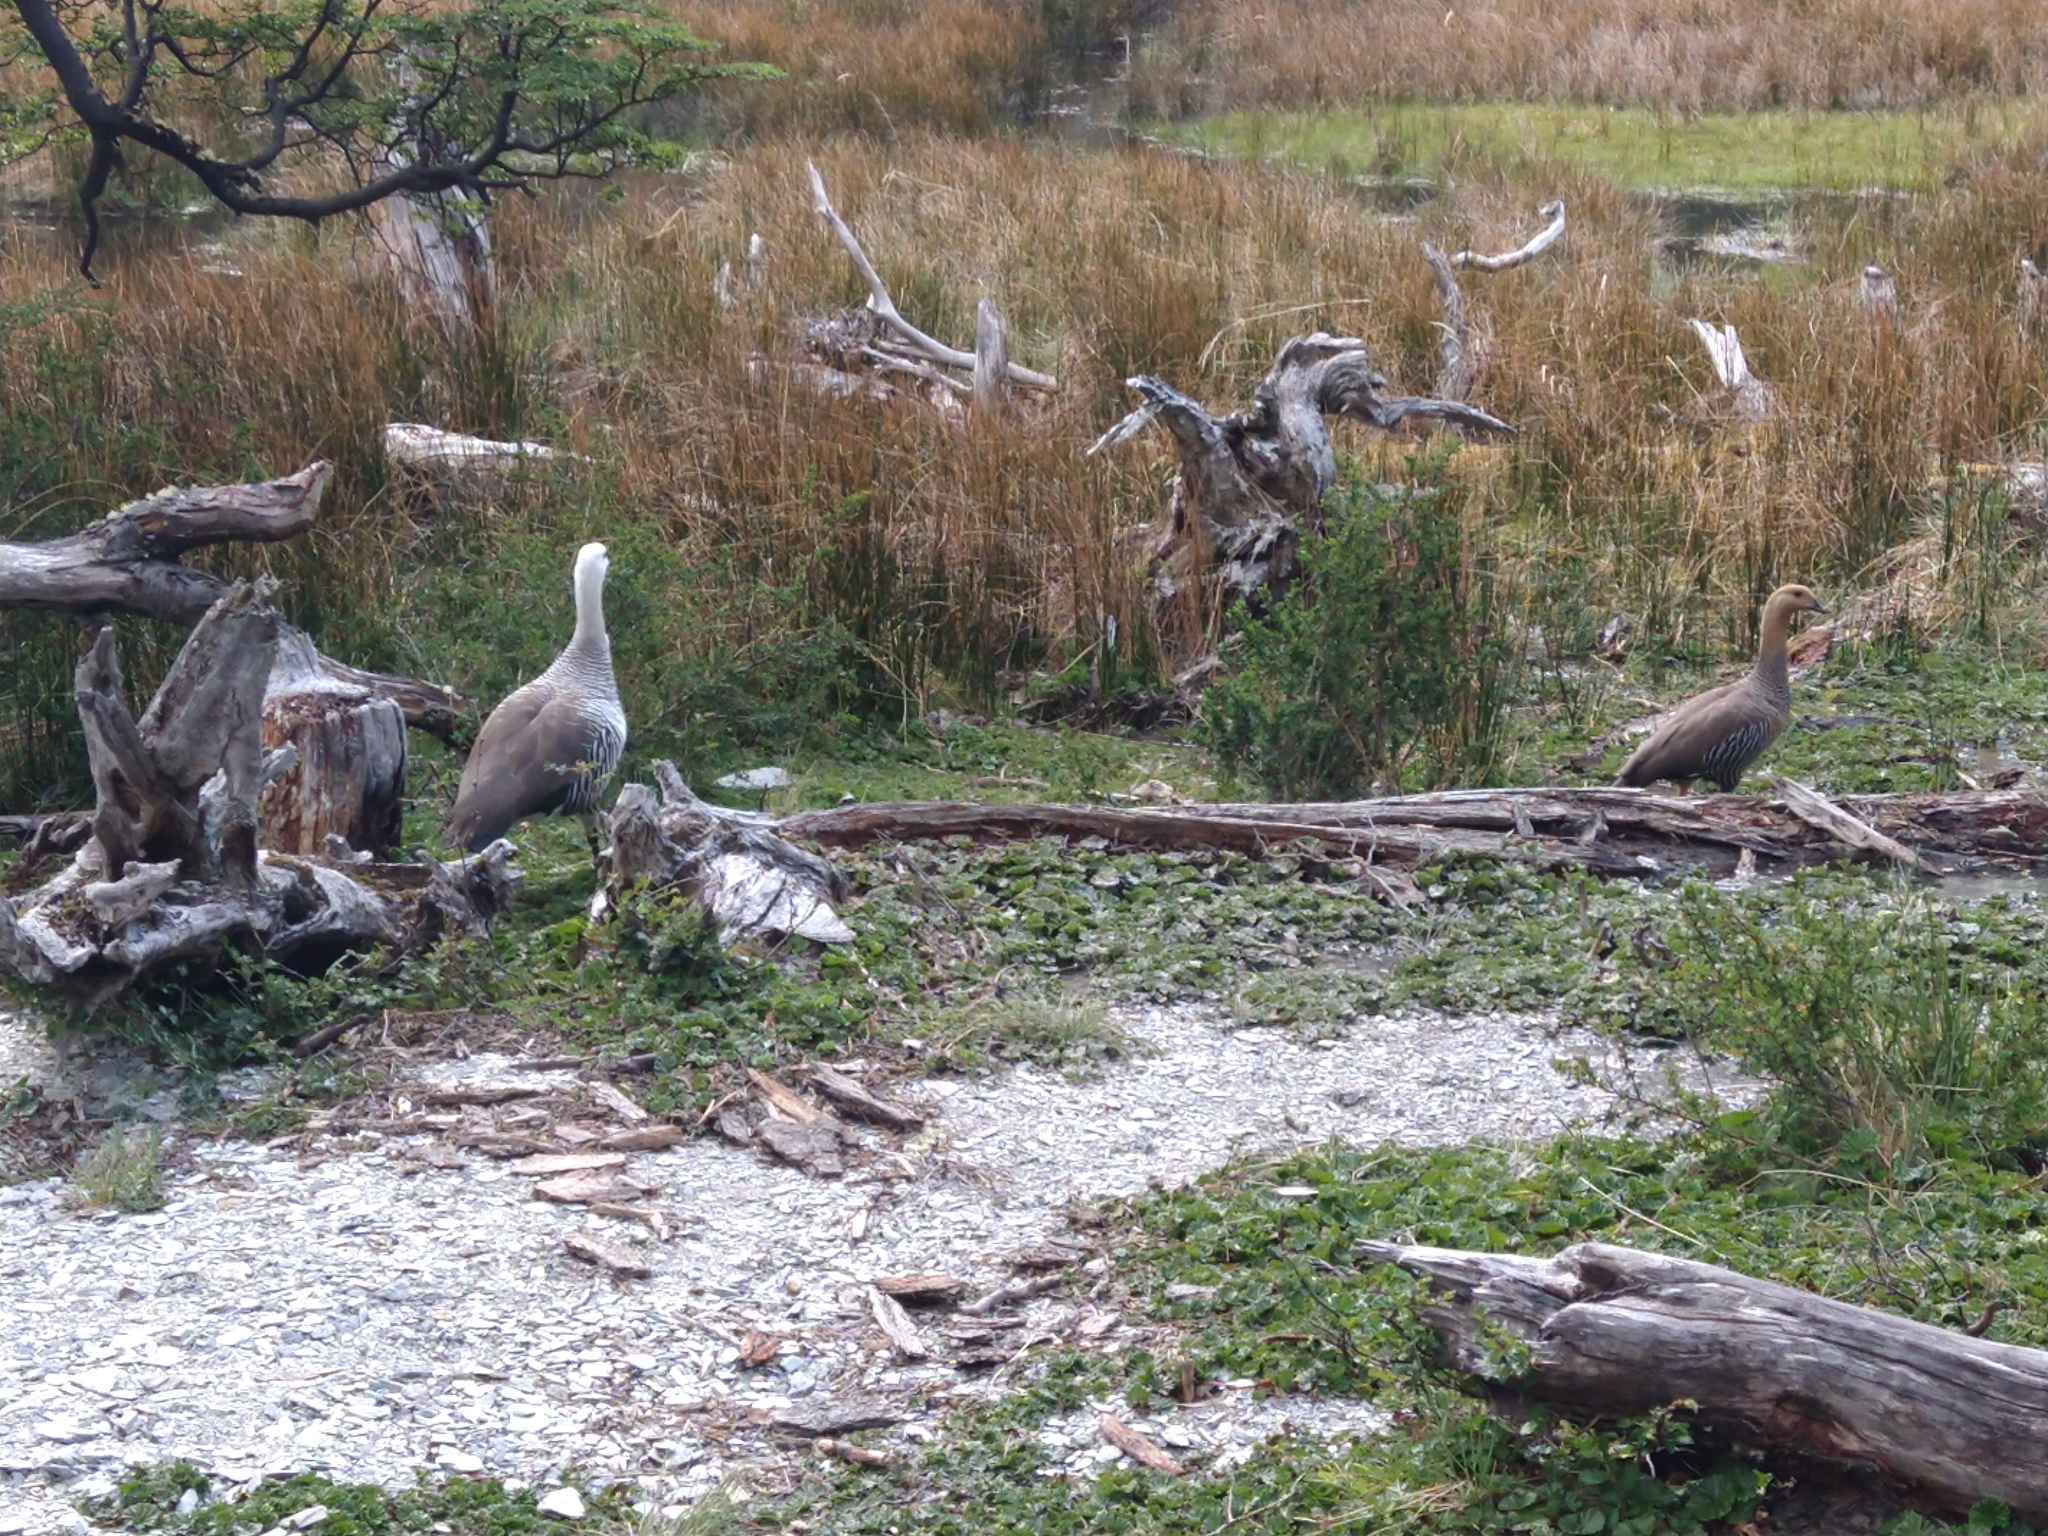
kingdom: Animalia
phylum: Chordata
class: Aves
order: Anseriformes
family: Anatidae
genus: Chloephaga
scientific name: Chloephaga picta
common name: Upland goose
